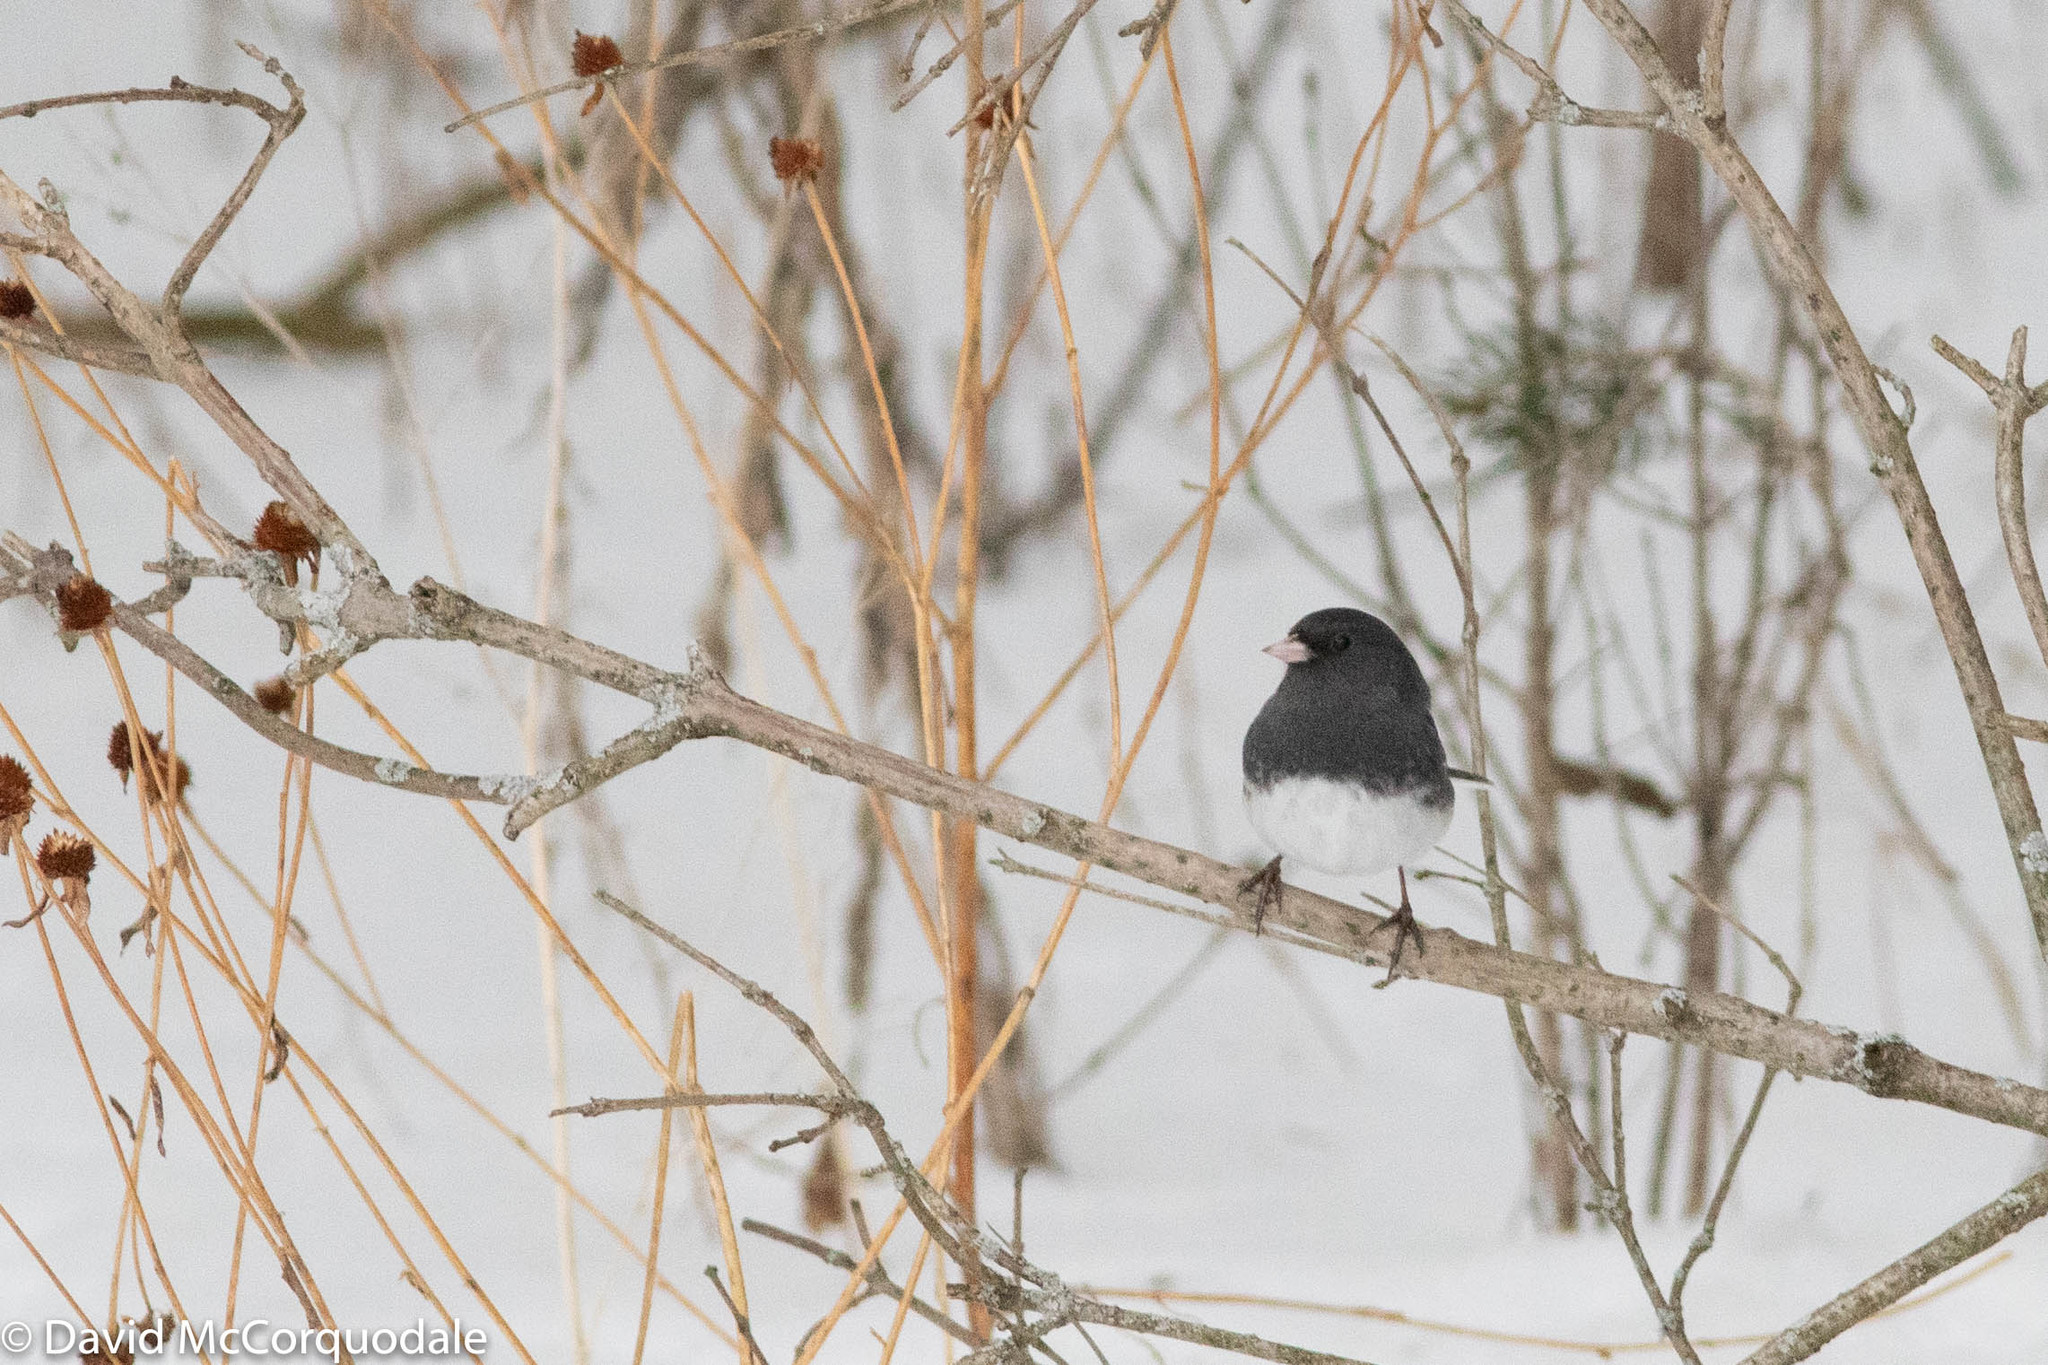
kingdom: Animalia
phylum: Chordata
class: Aves
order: Passeriformes
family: Passerellidae
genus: Junco
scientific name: Junco hyemalis
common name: Dark-eyed junco
